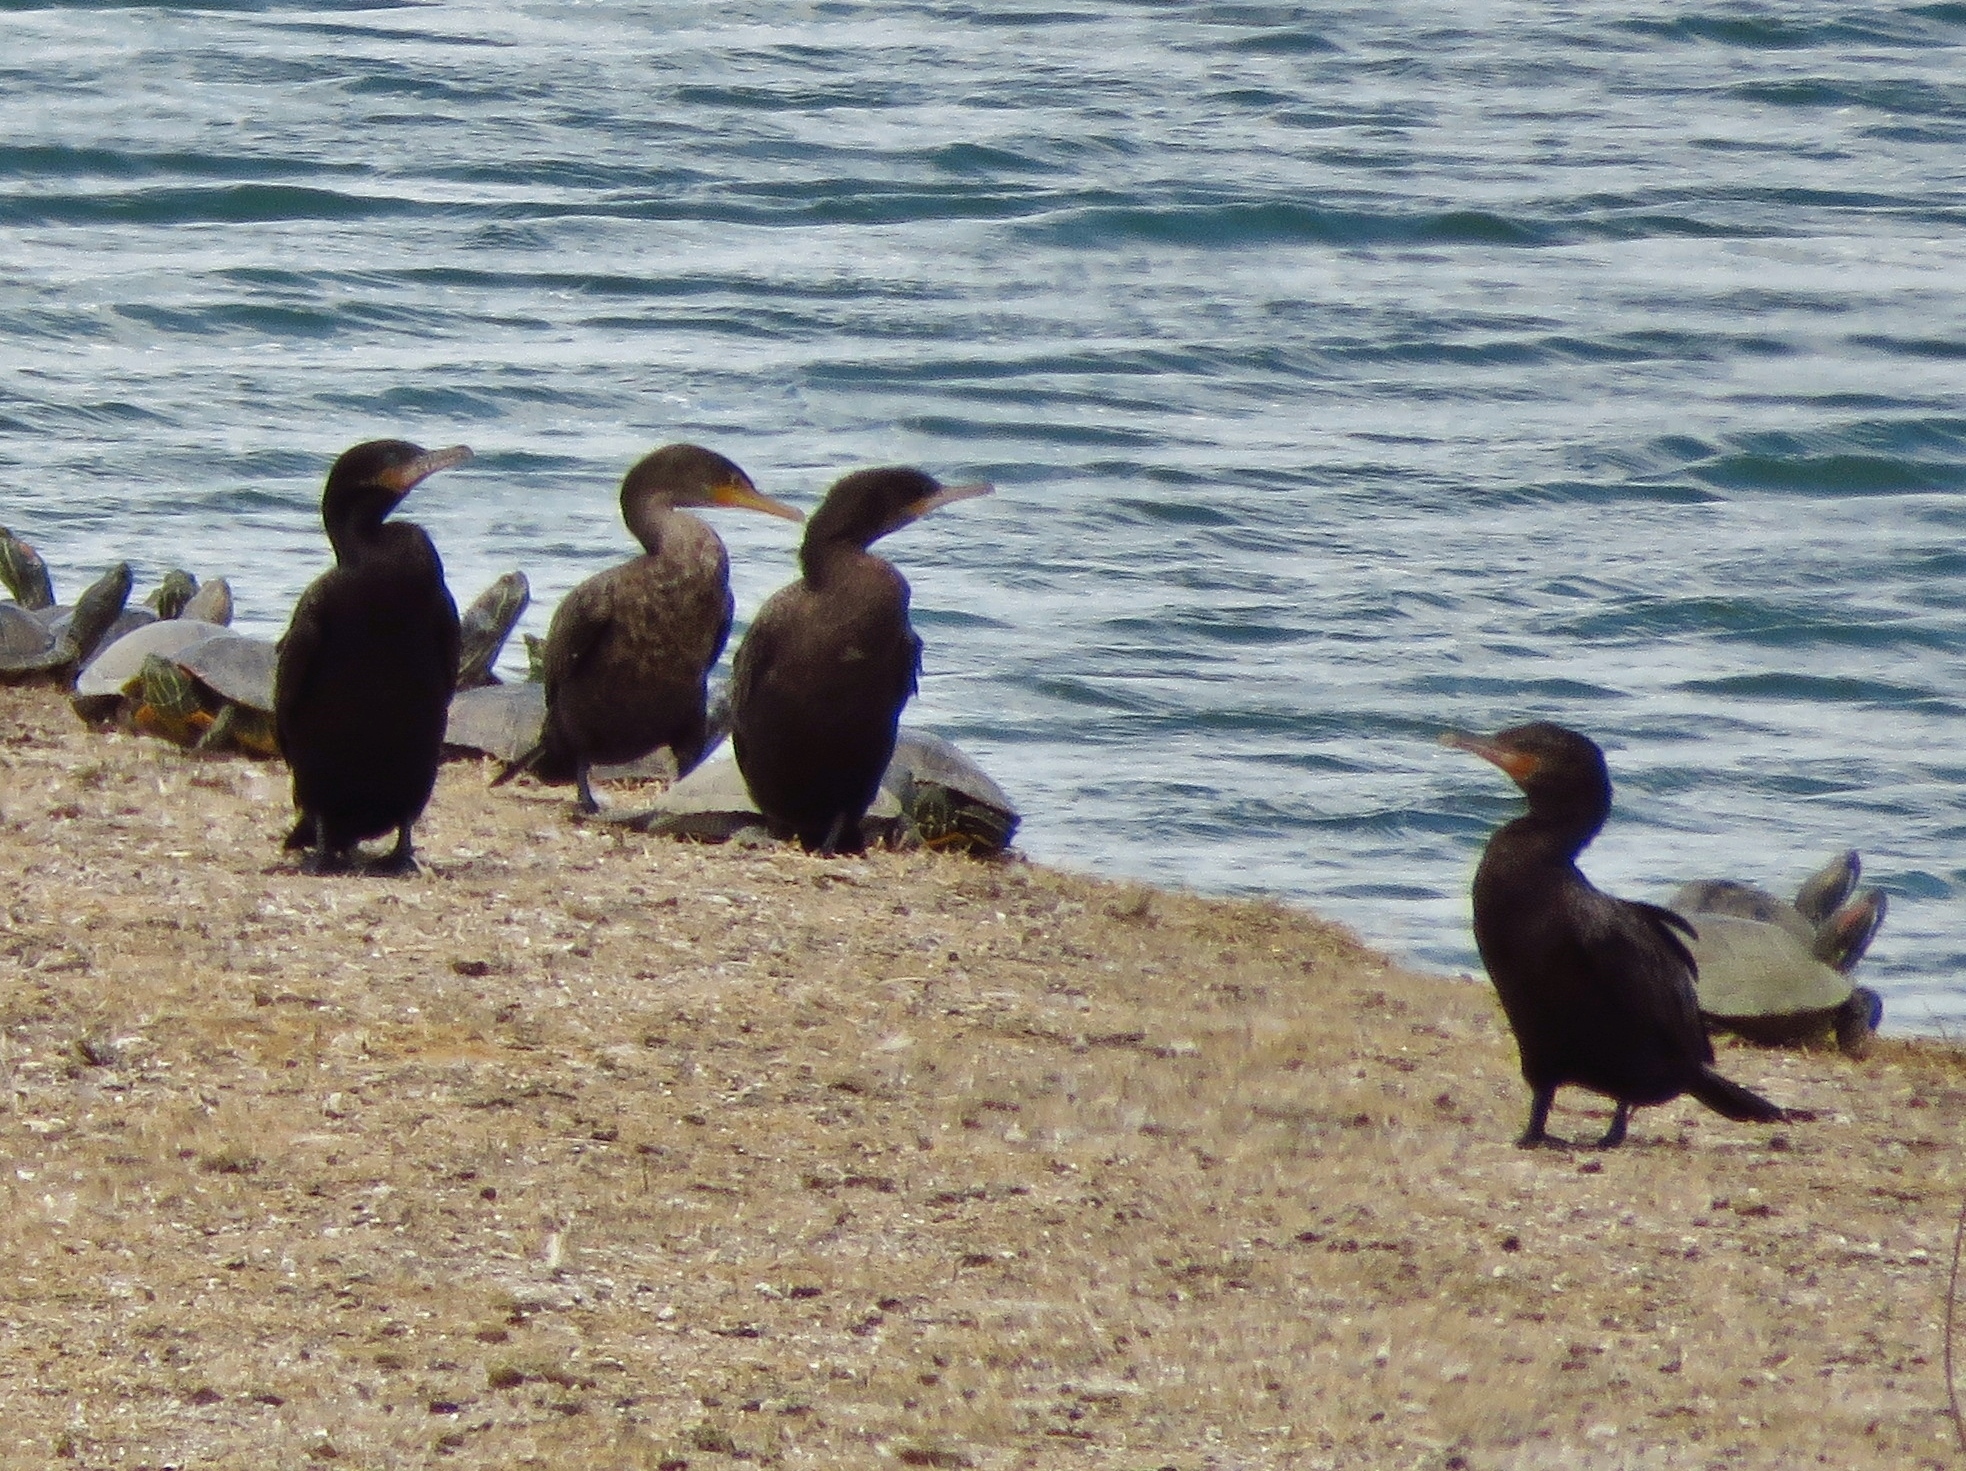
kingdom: Animalia
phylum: Chordata
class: Aves
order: Suliformes
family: Phalacrocoracidae
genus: Phalacrocorax
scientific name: Phalacrocorax brasilianus
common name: Neotropic cormorant
